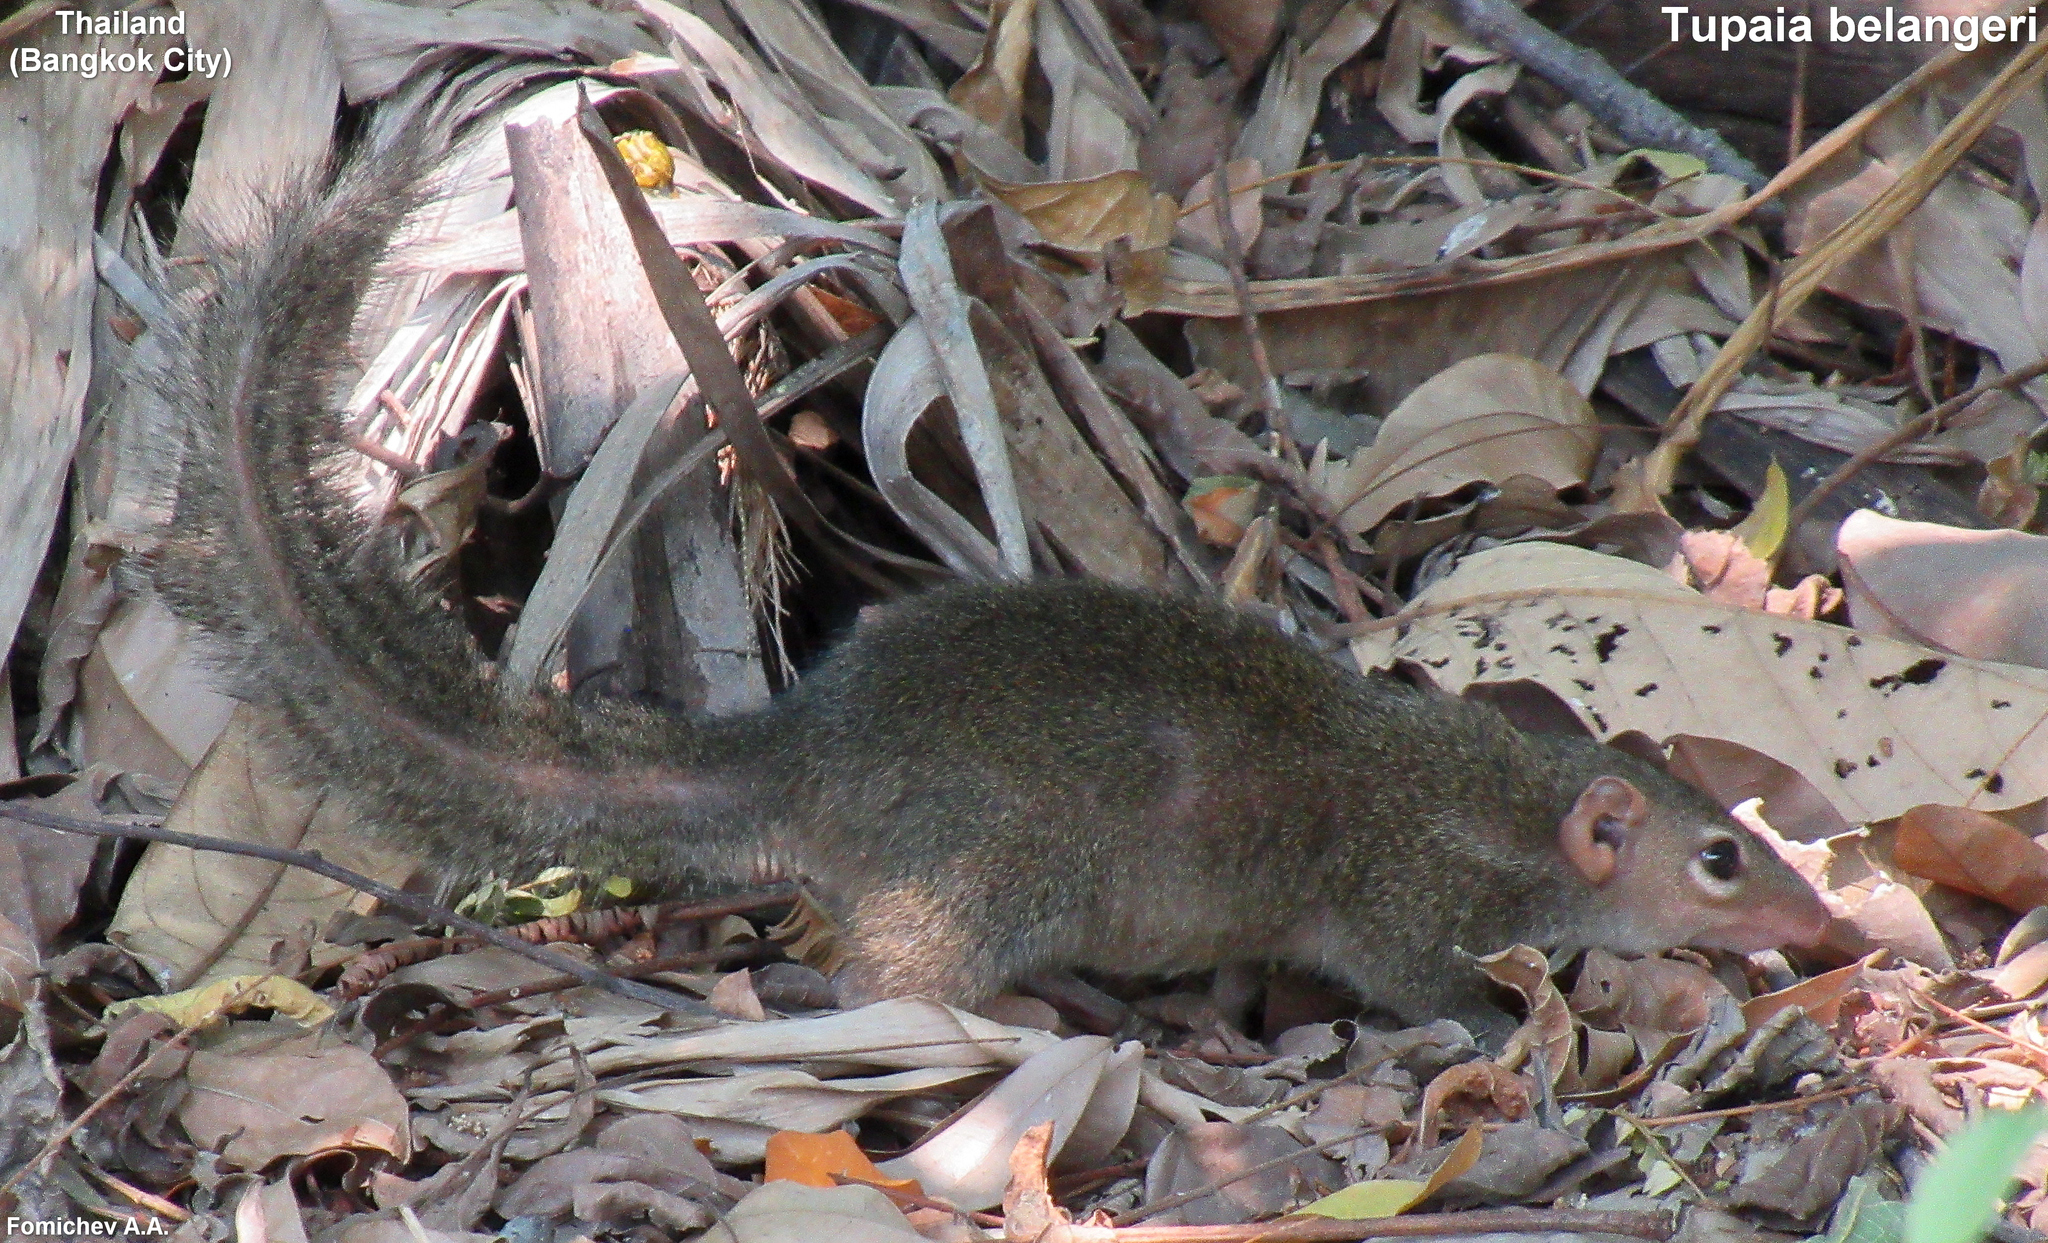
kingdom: Animalia
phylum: Chordata
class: Mammalia
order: Scandentia
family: Tupaiidae
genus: Tupaia
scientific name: Tupaia belangeri
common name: Northern treeshrew
